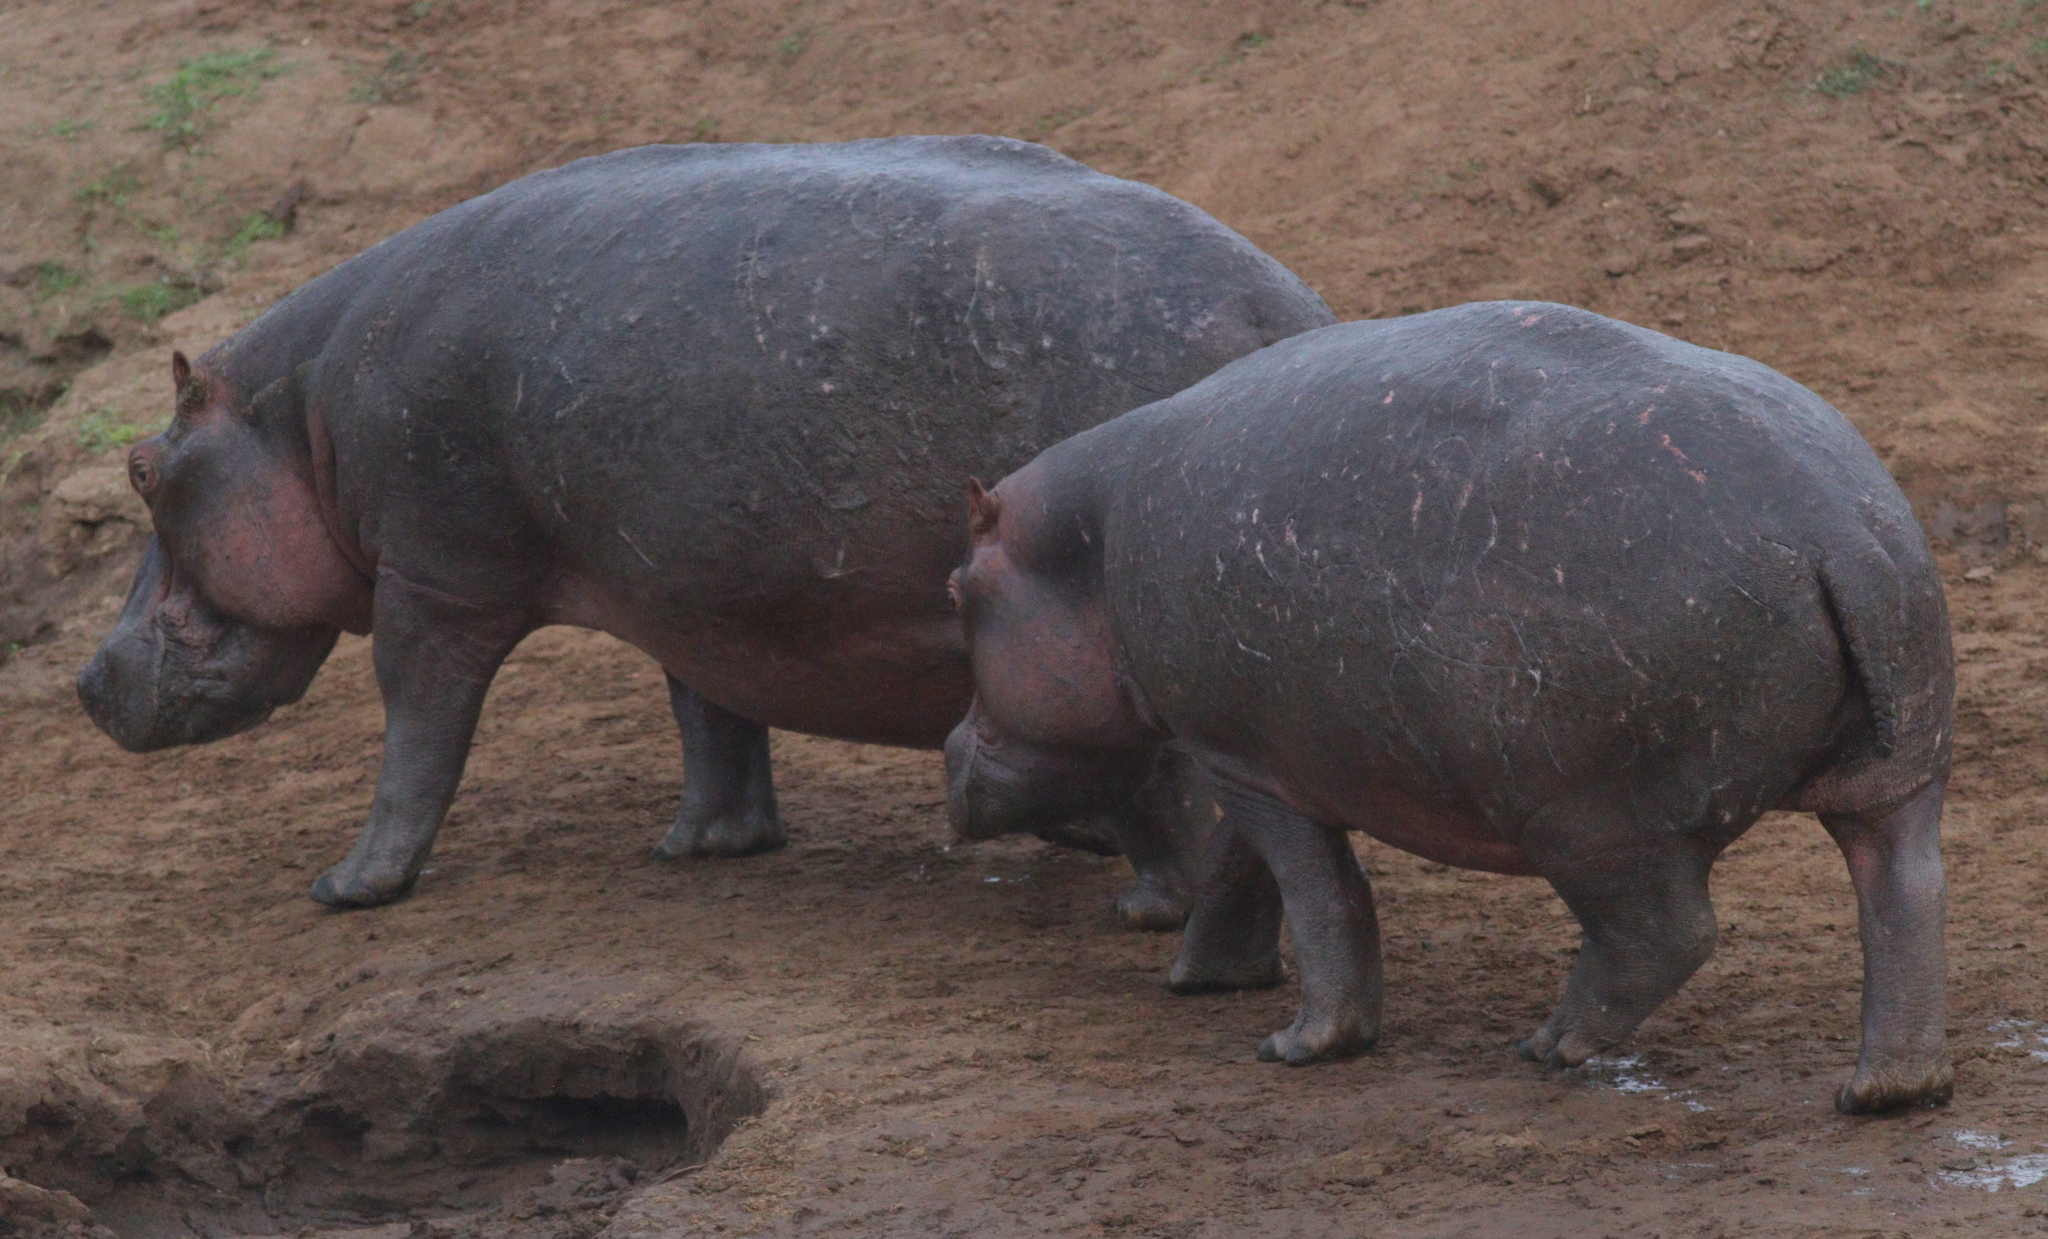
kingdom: Animalia
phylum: Chordata
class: Mammalia
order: Artiodactyla
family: Hippopotamidae
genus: Hippopotamus
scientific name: Hippopotamus amphibius
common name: Common hippopotamus
